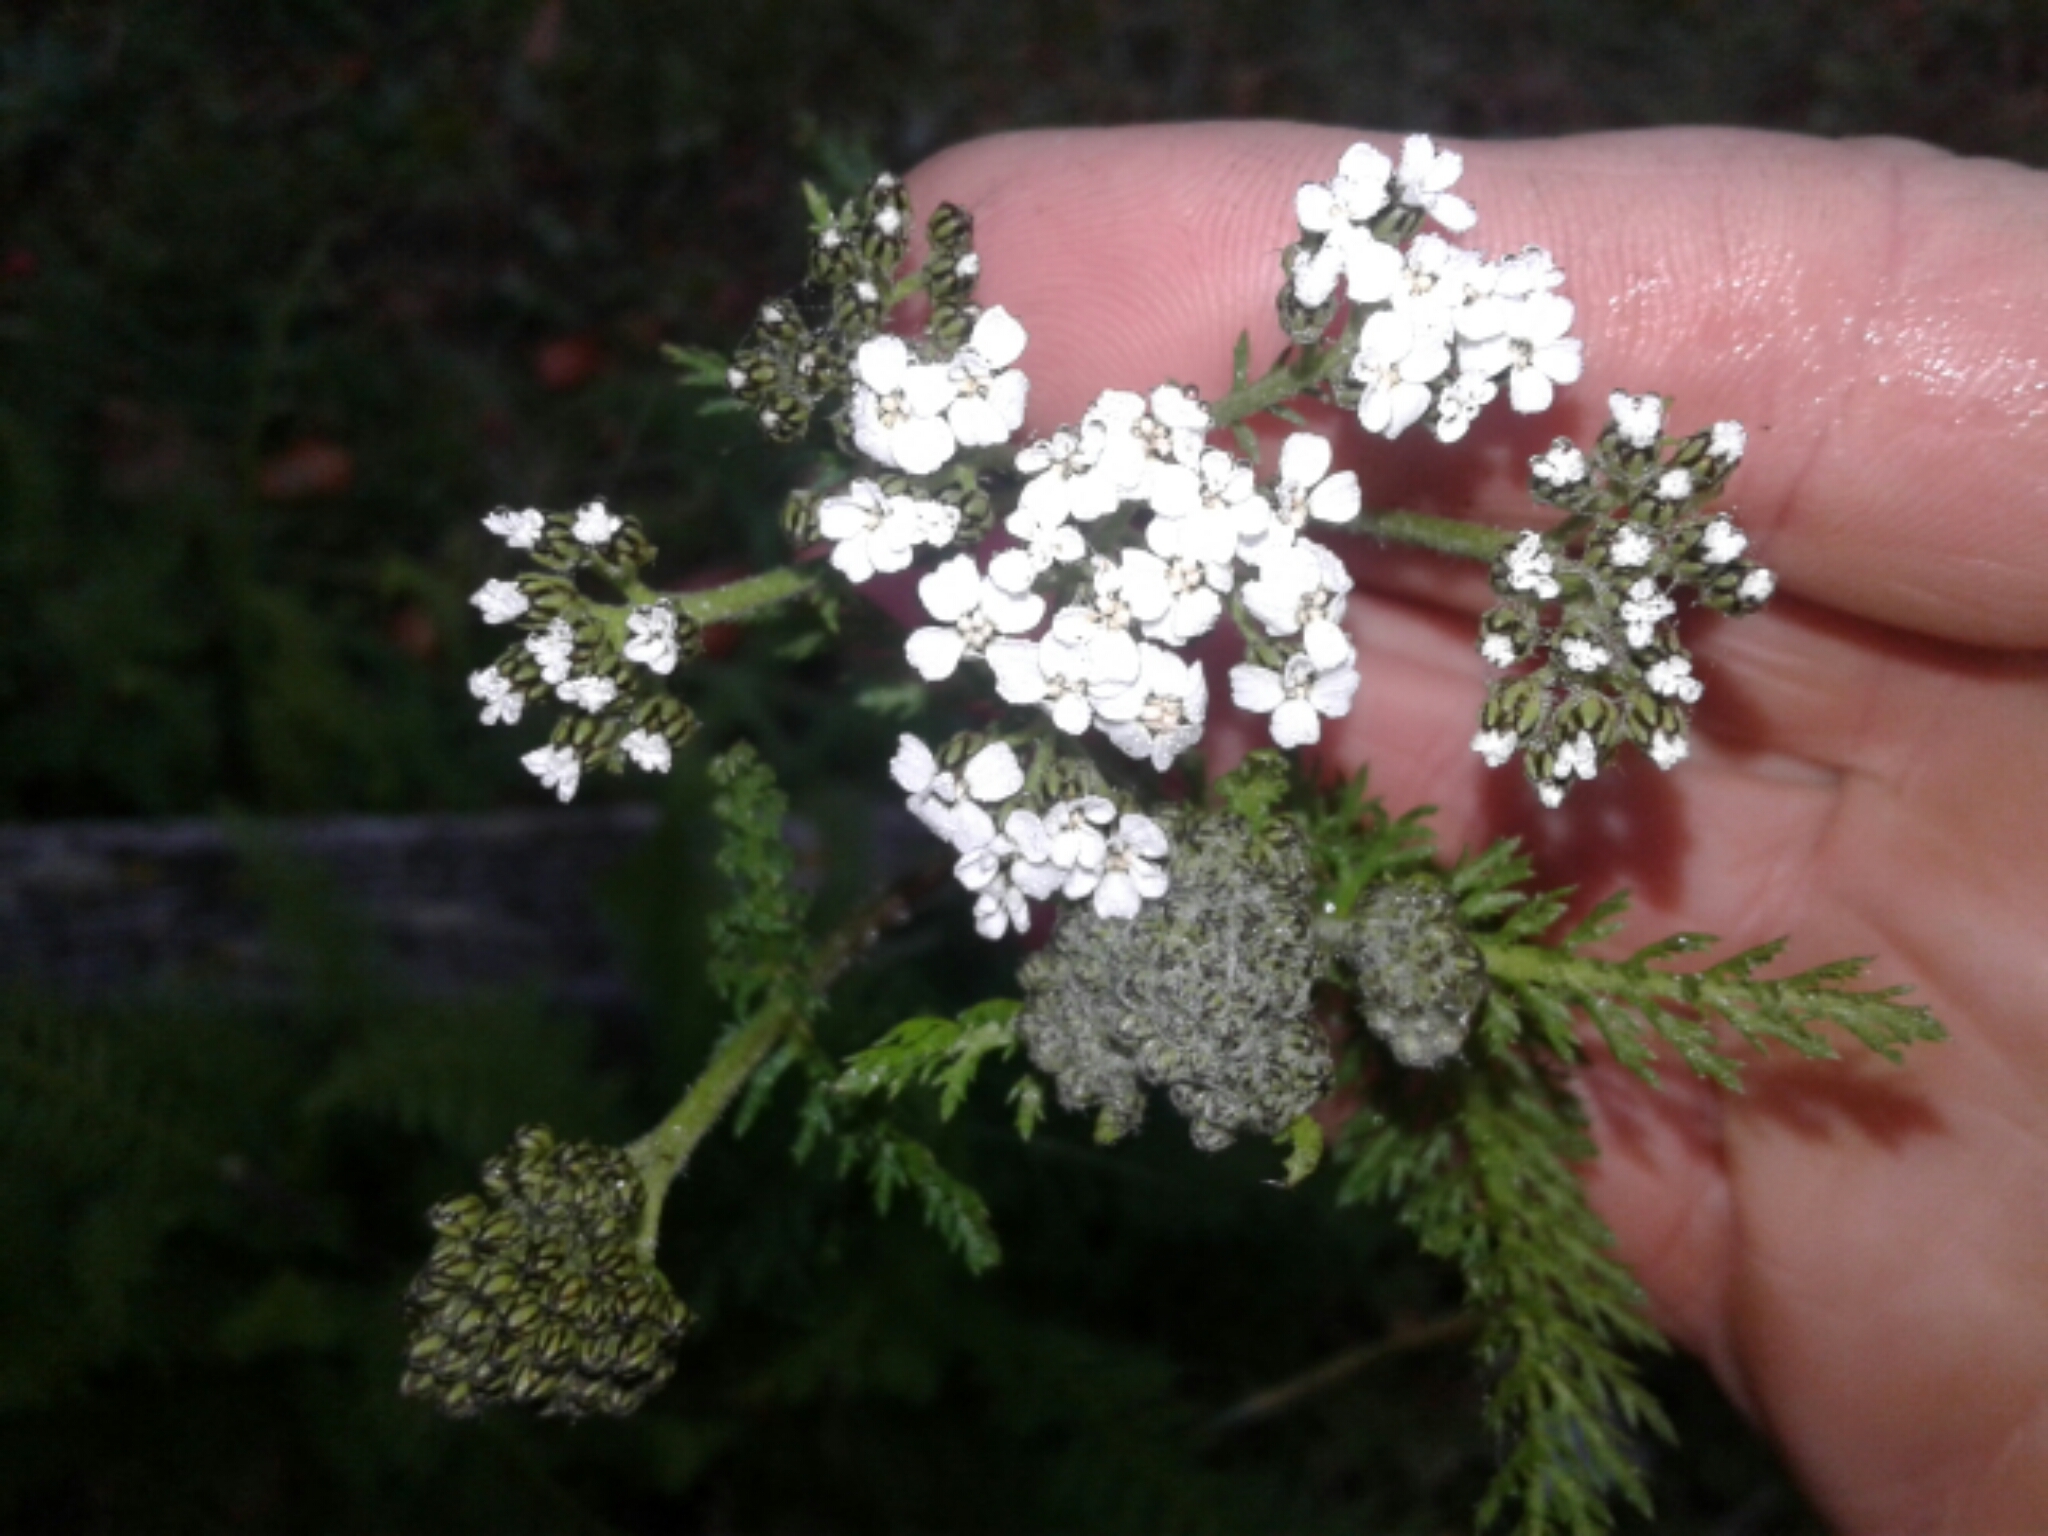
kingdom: Plantae
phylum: Tracheophyta
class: Magnoliopsida
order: Asterales
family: Asteraceae
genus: Achillea
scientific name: Achillea millefolium
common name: Yarrow
